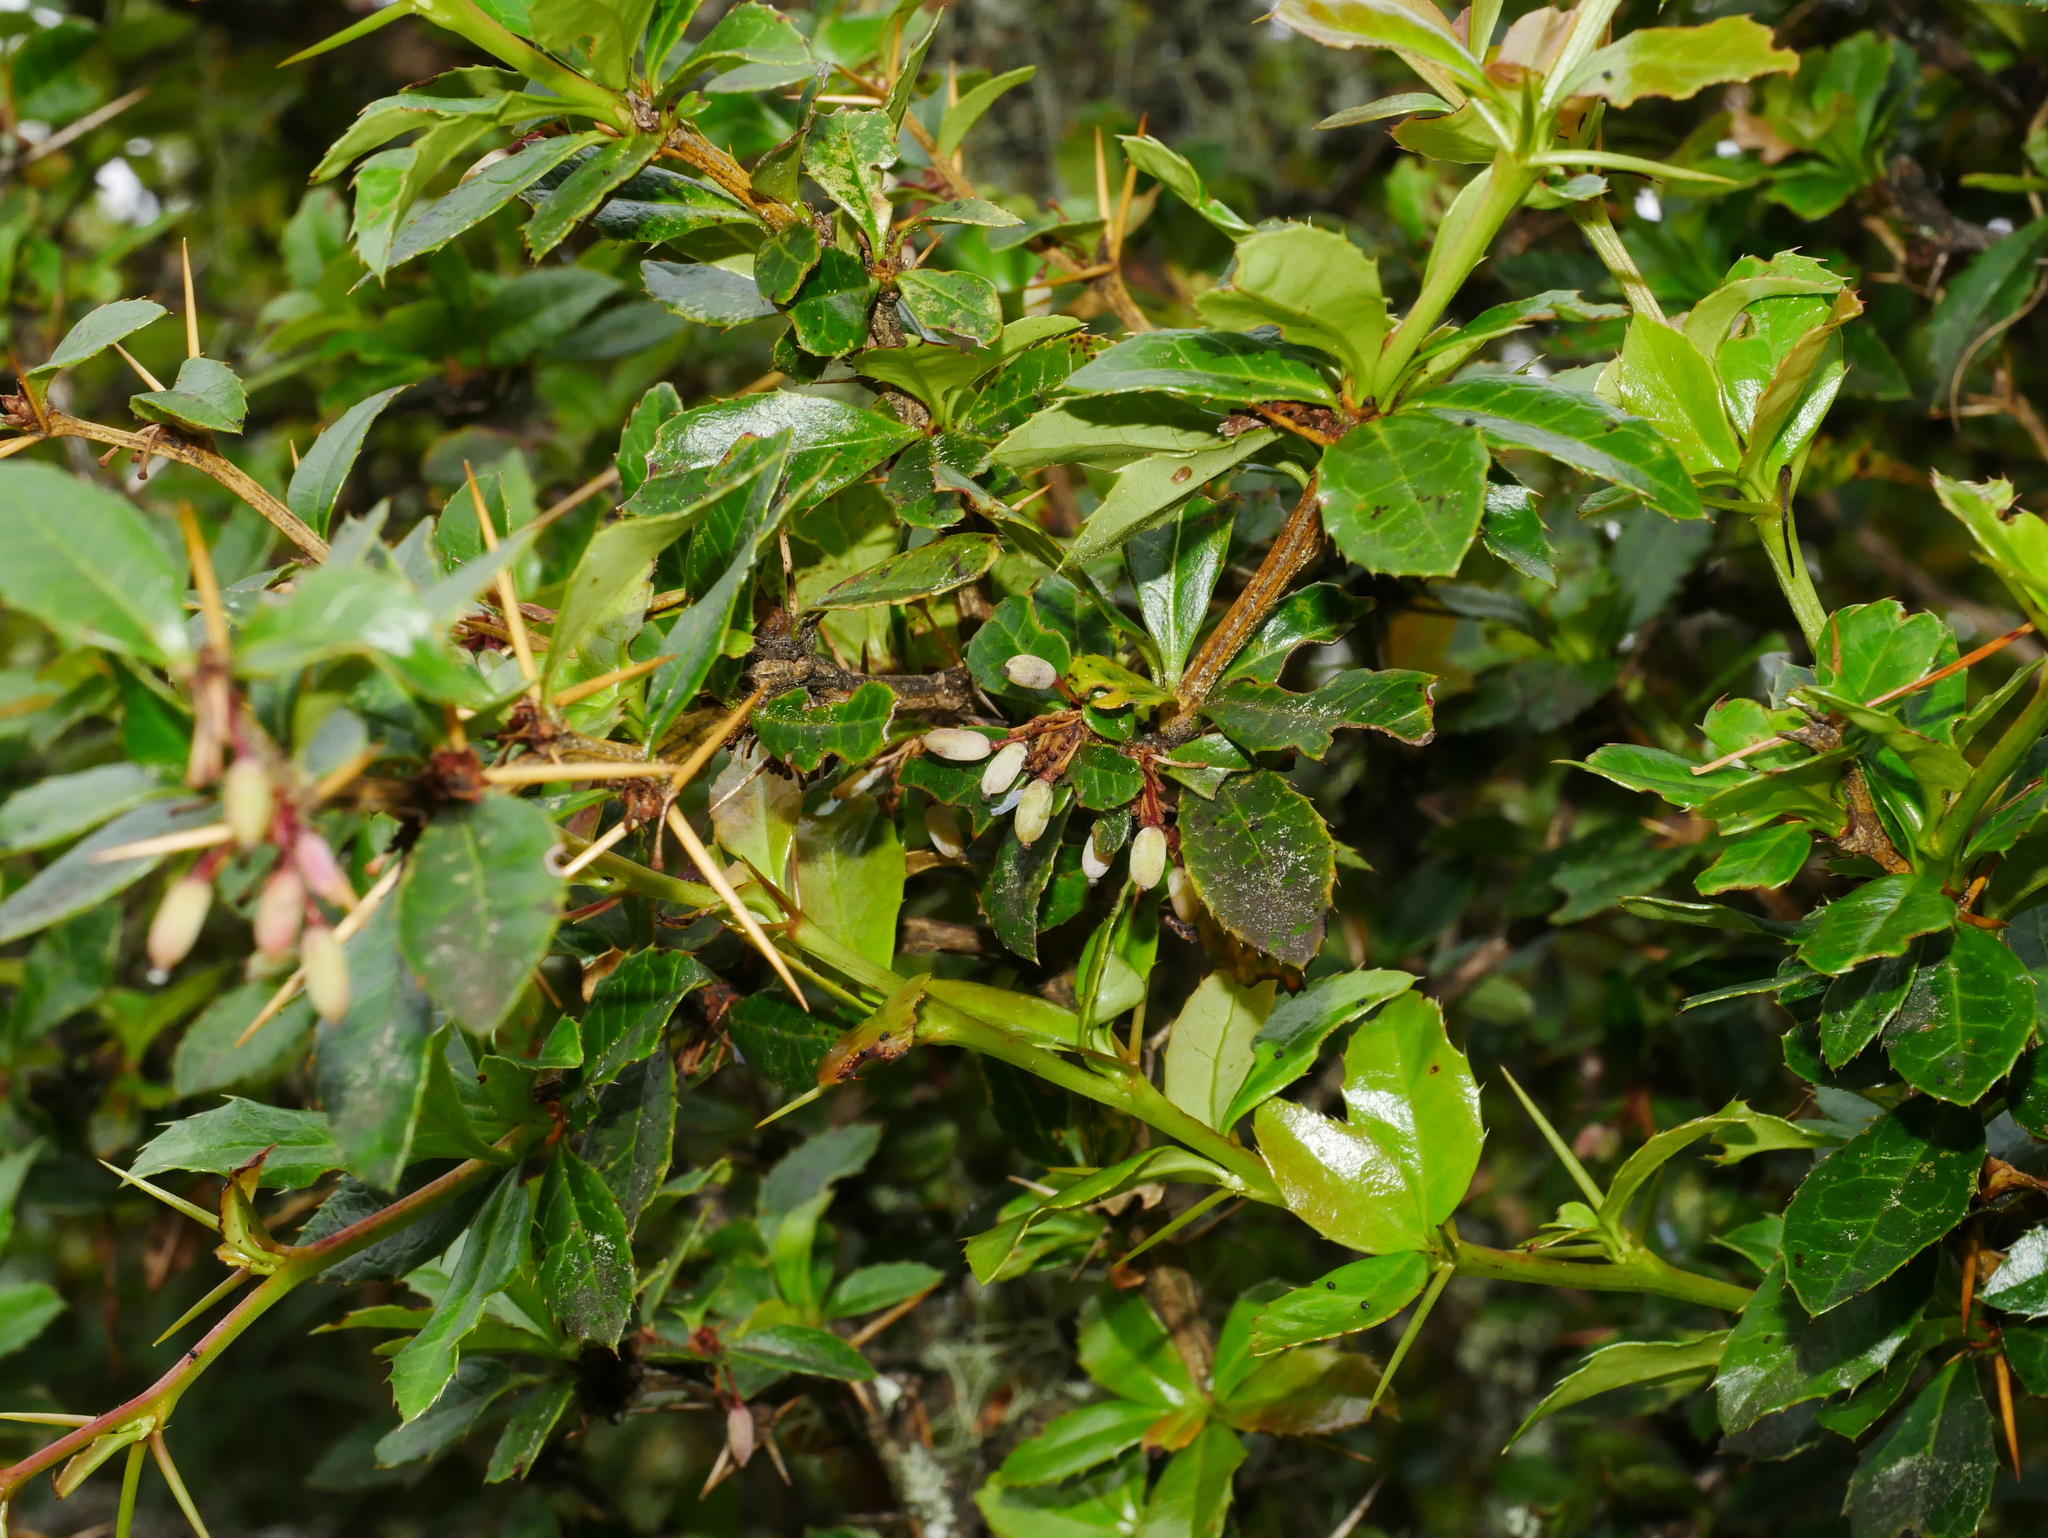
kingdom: Plantae
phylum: Tracheophyta
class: Magnoliopsida
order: Ranunculales
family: Berberidaceae
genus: Berberis
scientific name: Berberis kawakamii
